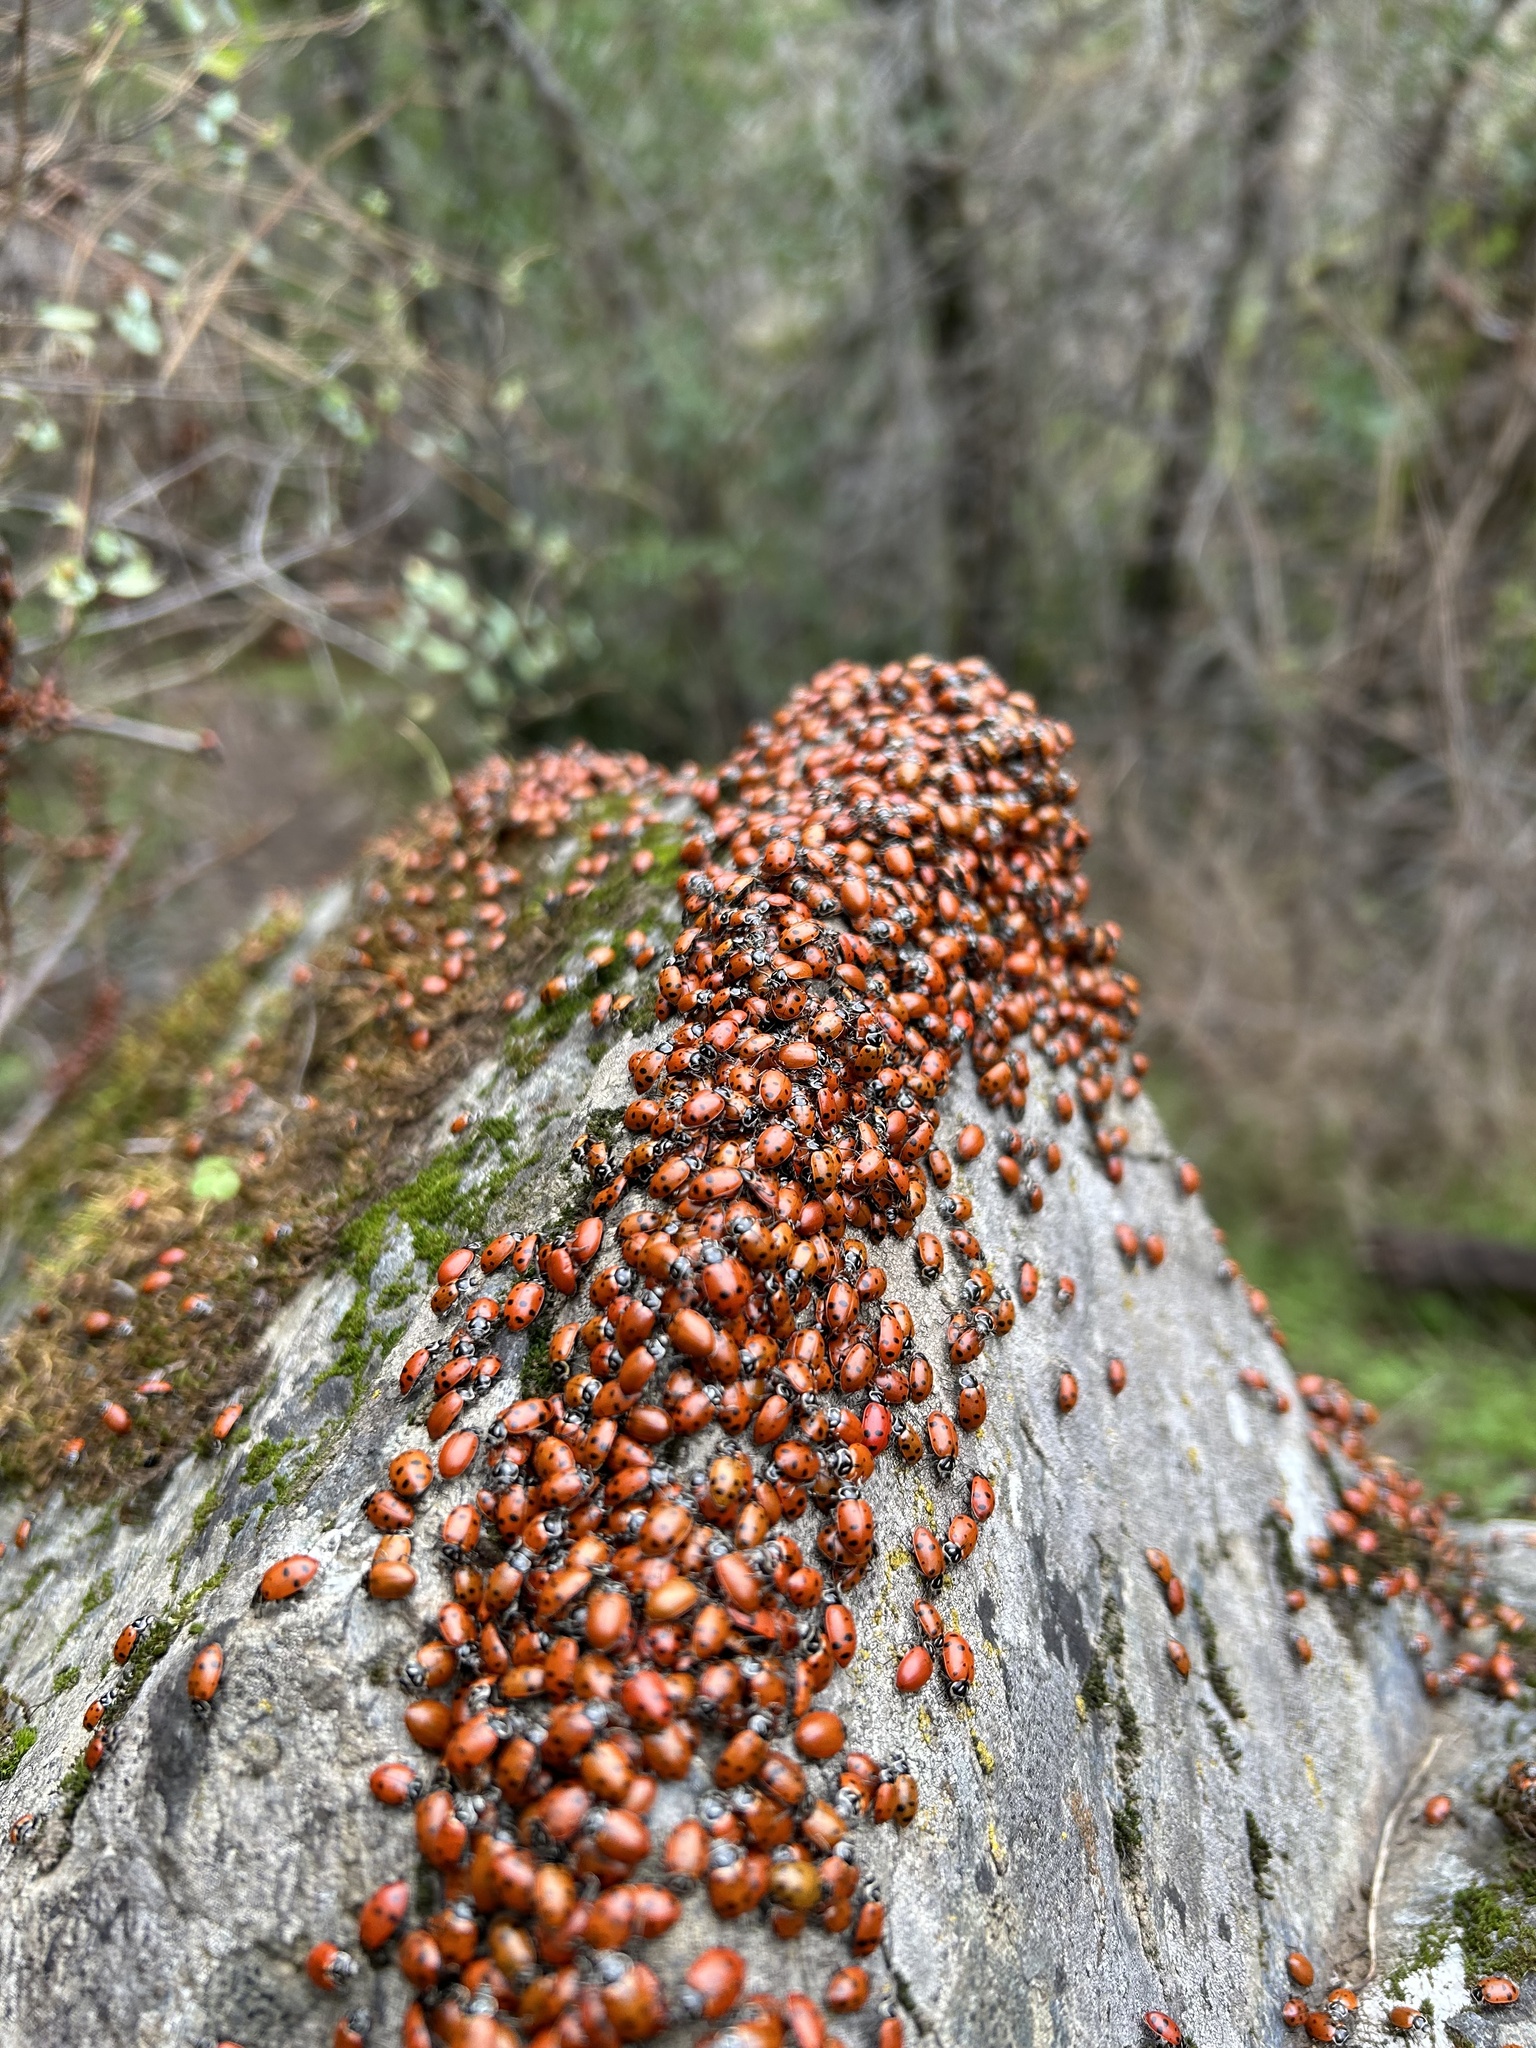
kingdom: Animalia
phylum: Arthropoda
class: Insecta
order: Coleoptera
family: Coccinellidae
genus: Hippodamia
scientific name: Hippodamia convergens
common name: Convergent lady beetle
